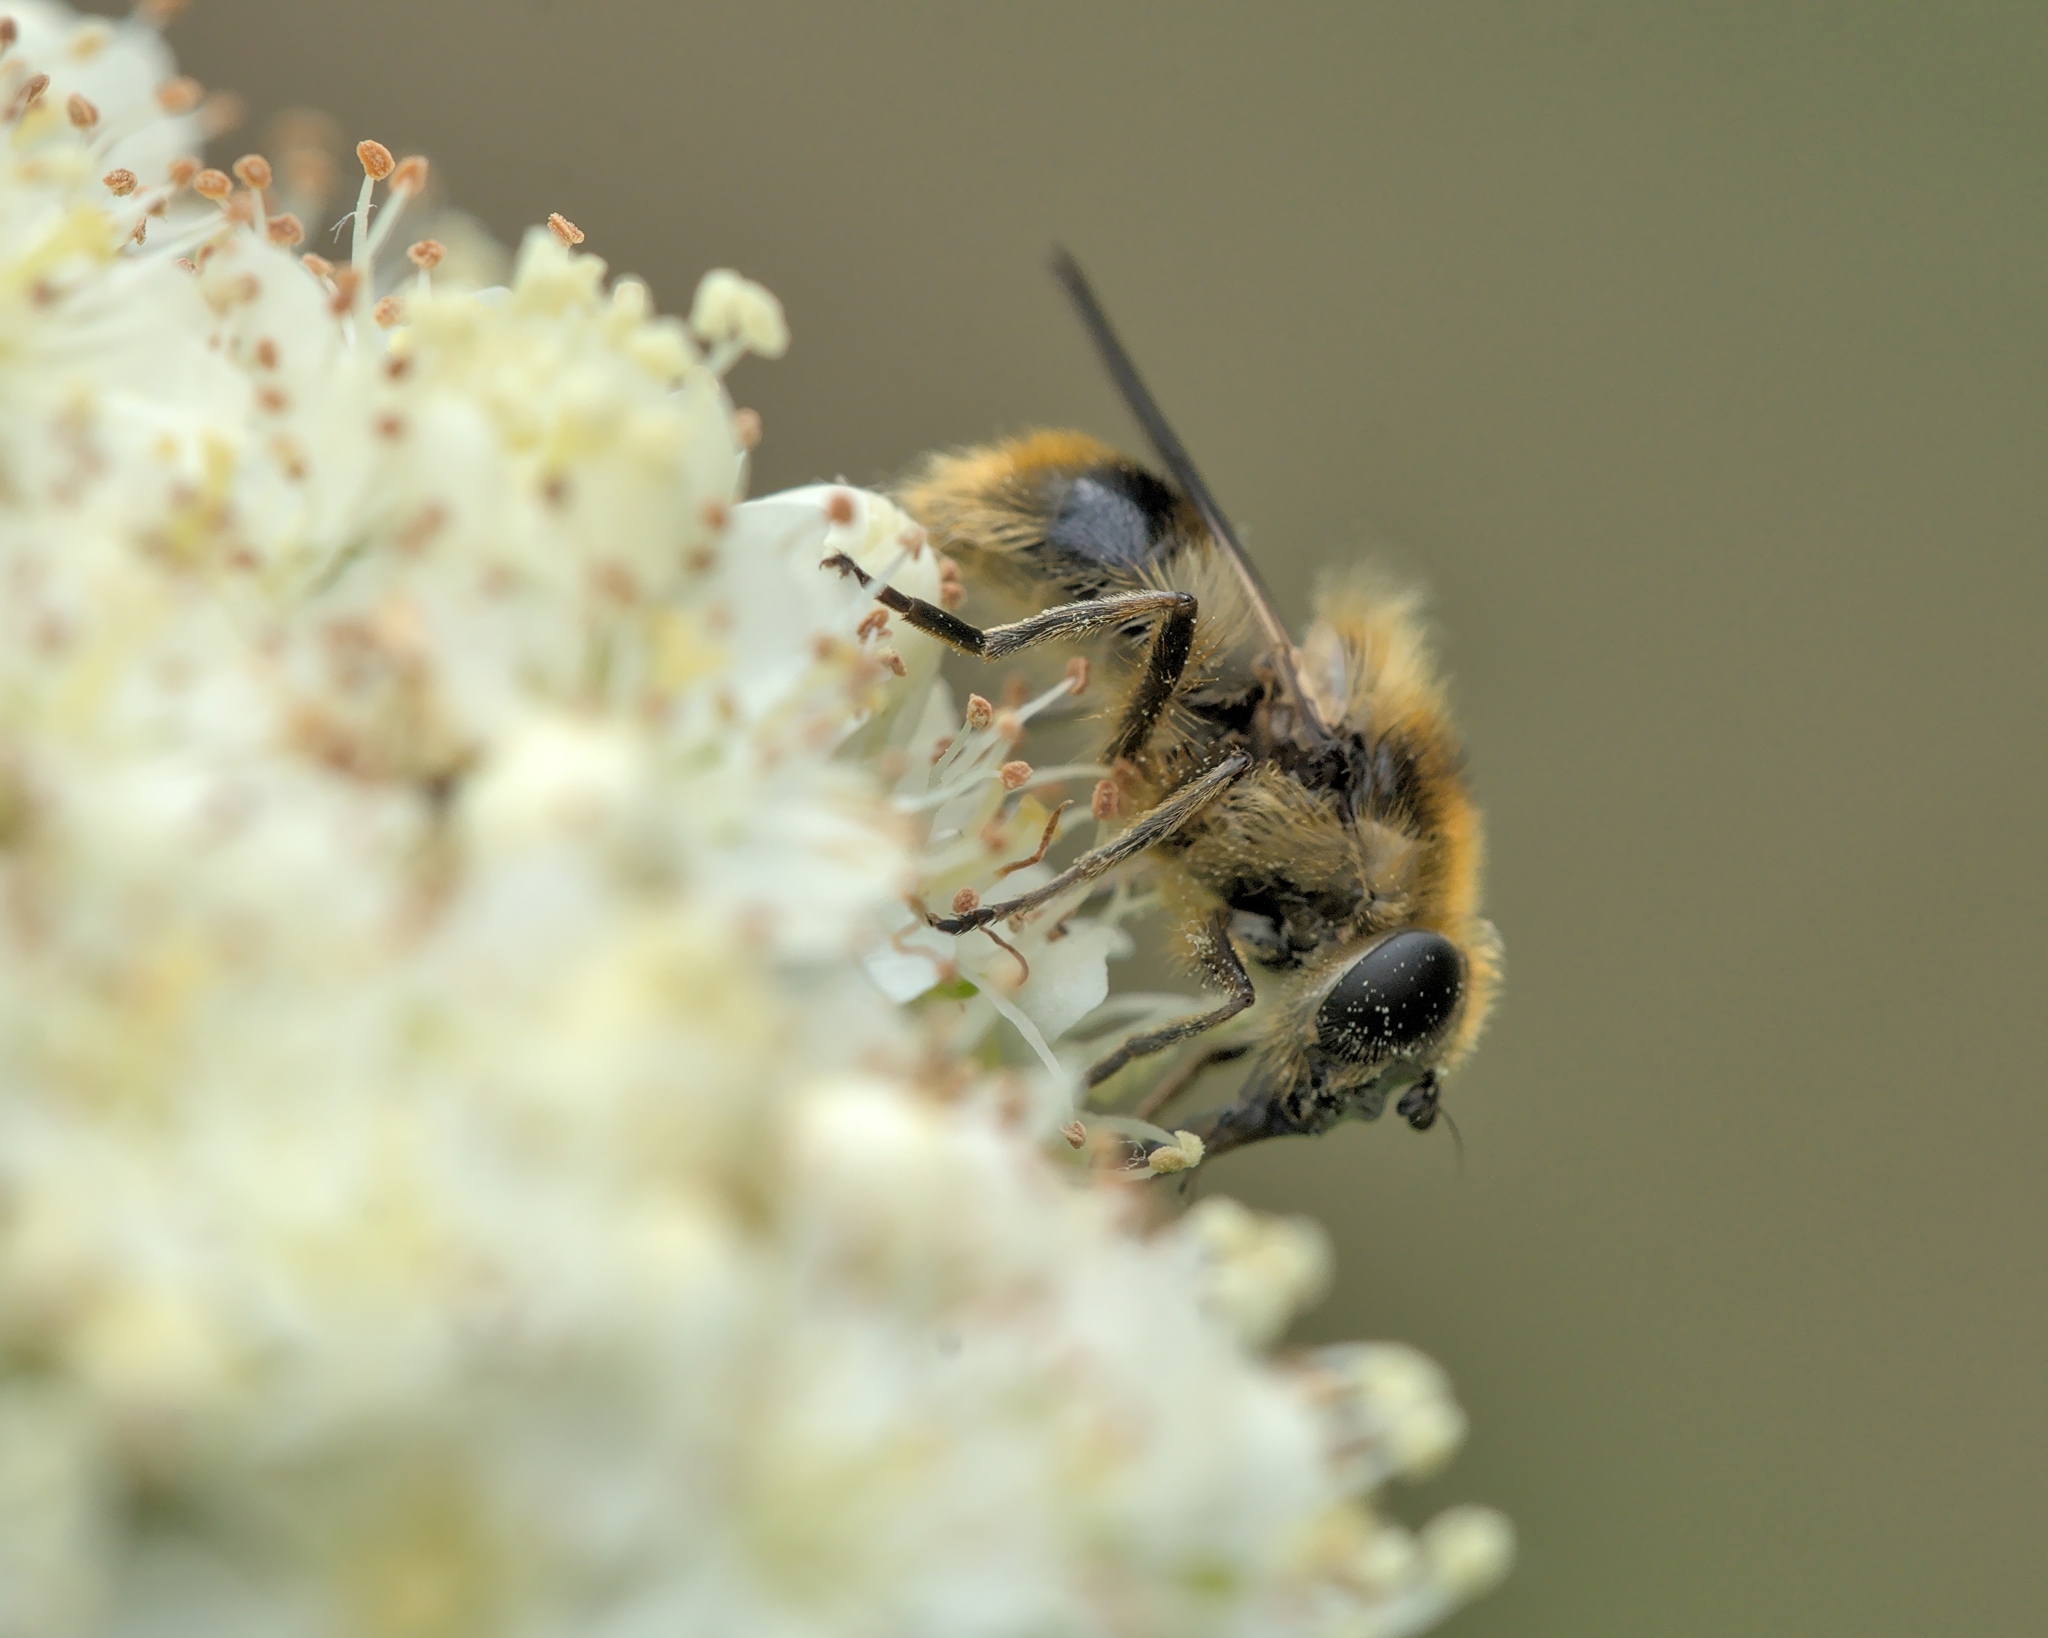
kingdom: Animalia
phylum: Arthropoda
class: Insecta
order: Diptera
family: Syrphidae
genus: Cheilosia
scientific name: Cheilosia illustrata
